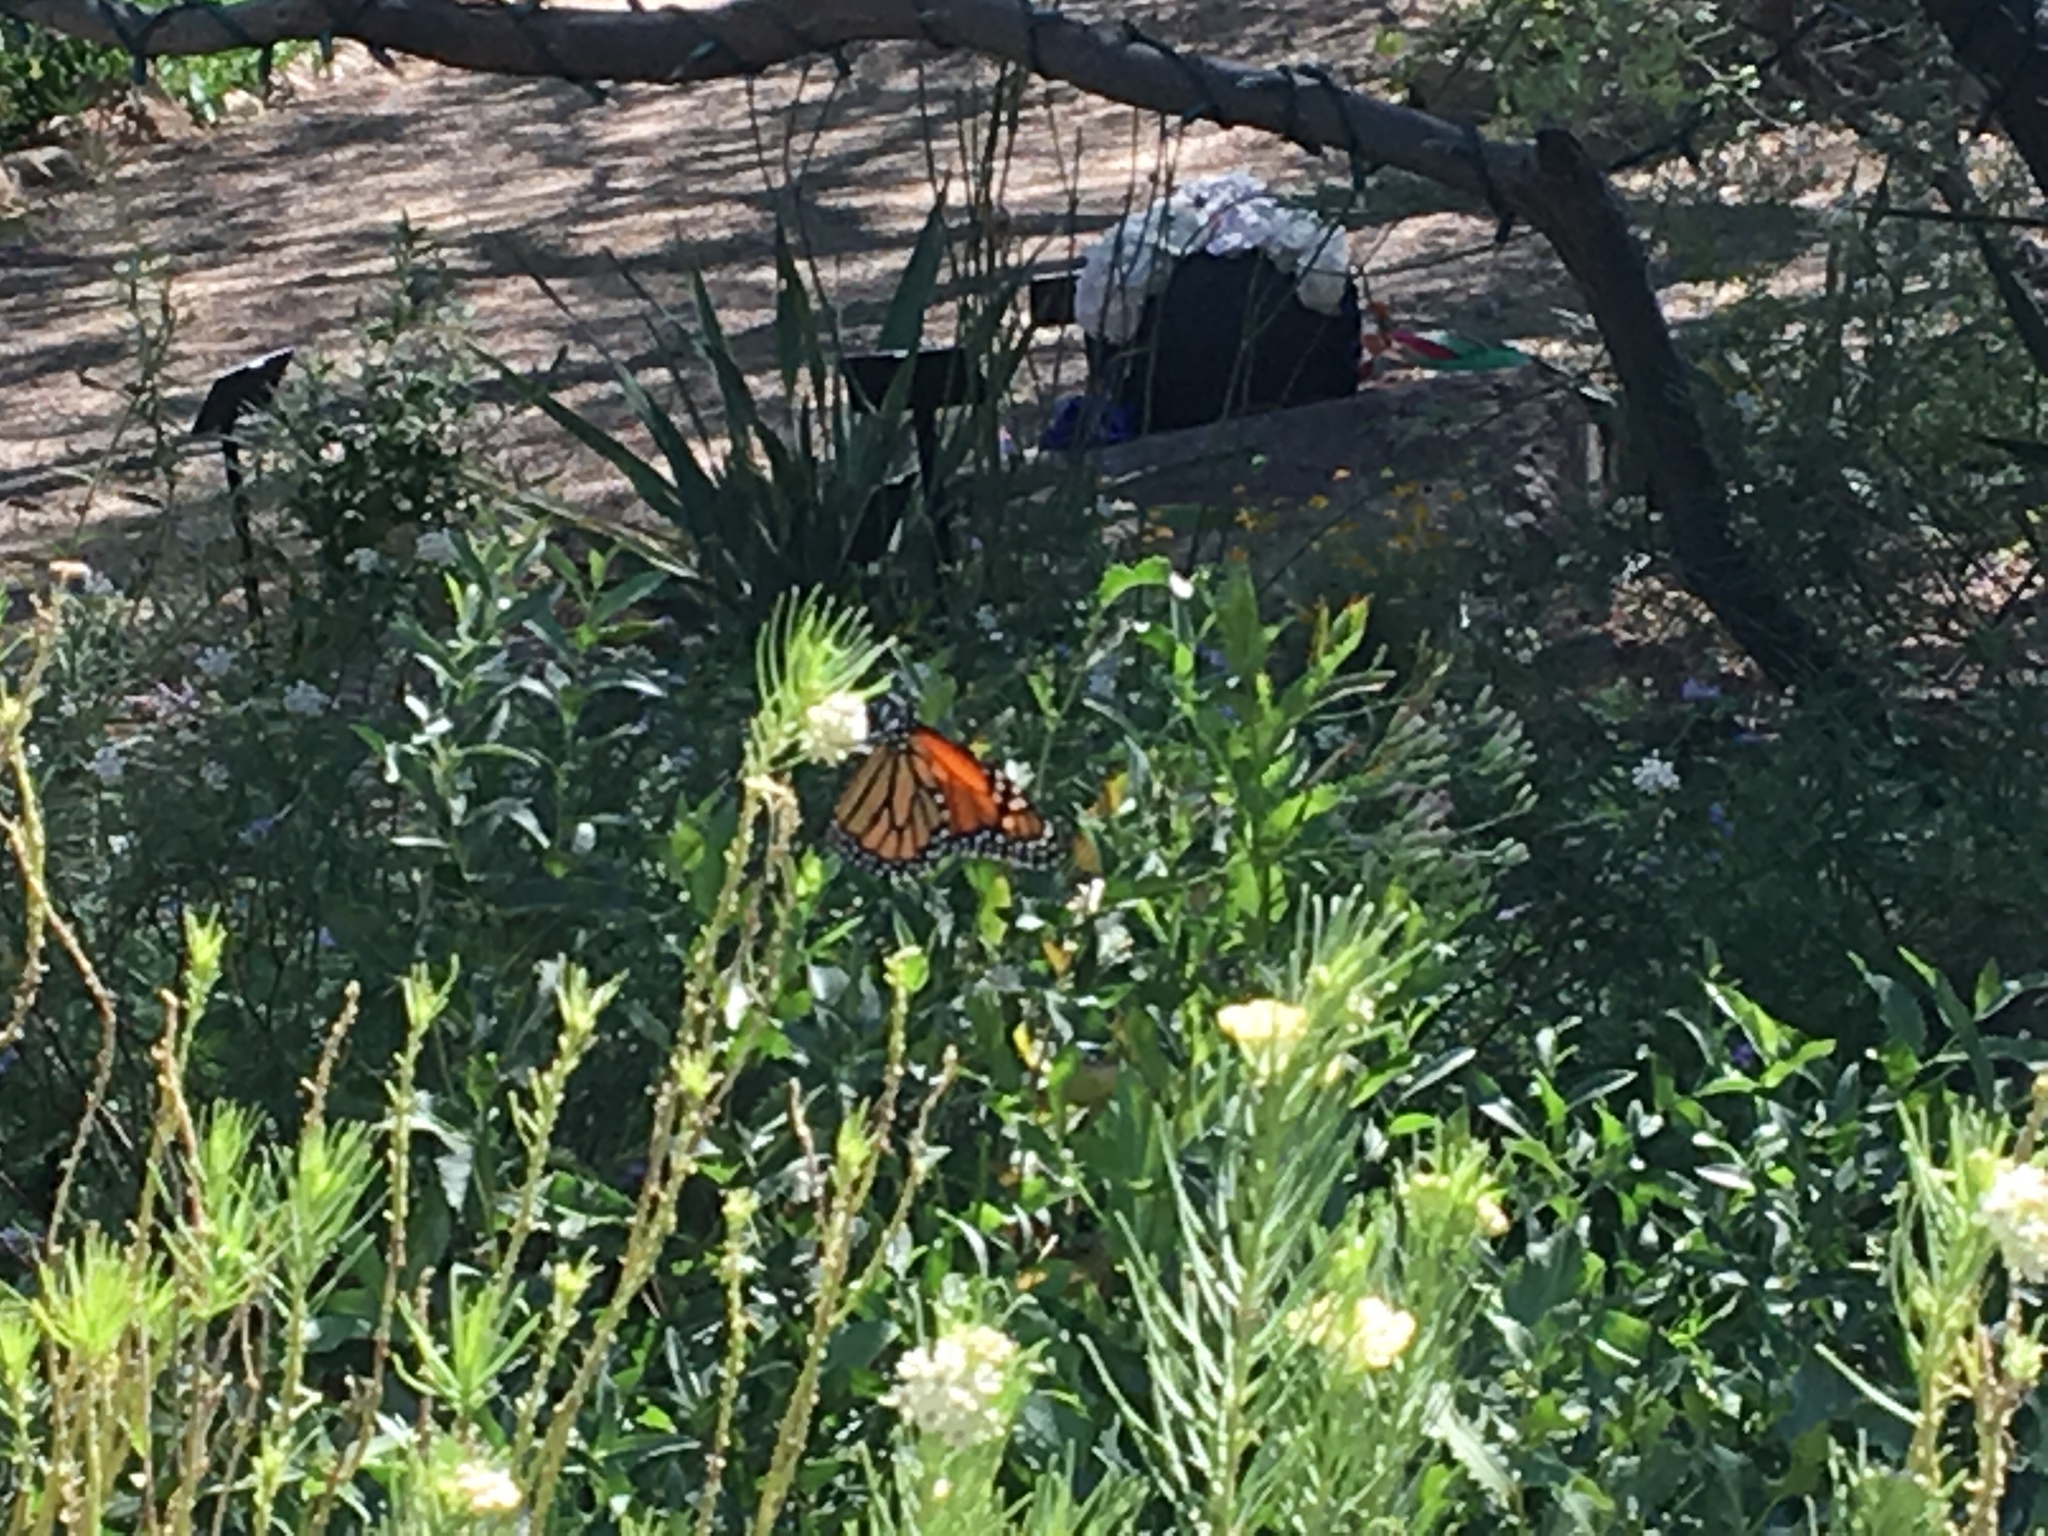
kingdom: Animalia
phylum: Arthropoda
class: Insecta
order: Lepidoptera
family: Nymphalidae
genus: Danaus
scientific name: Danaus plexippus
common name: Monarch
